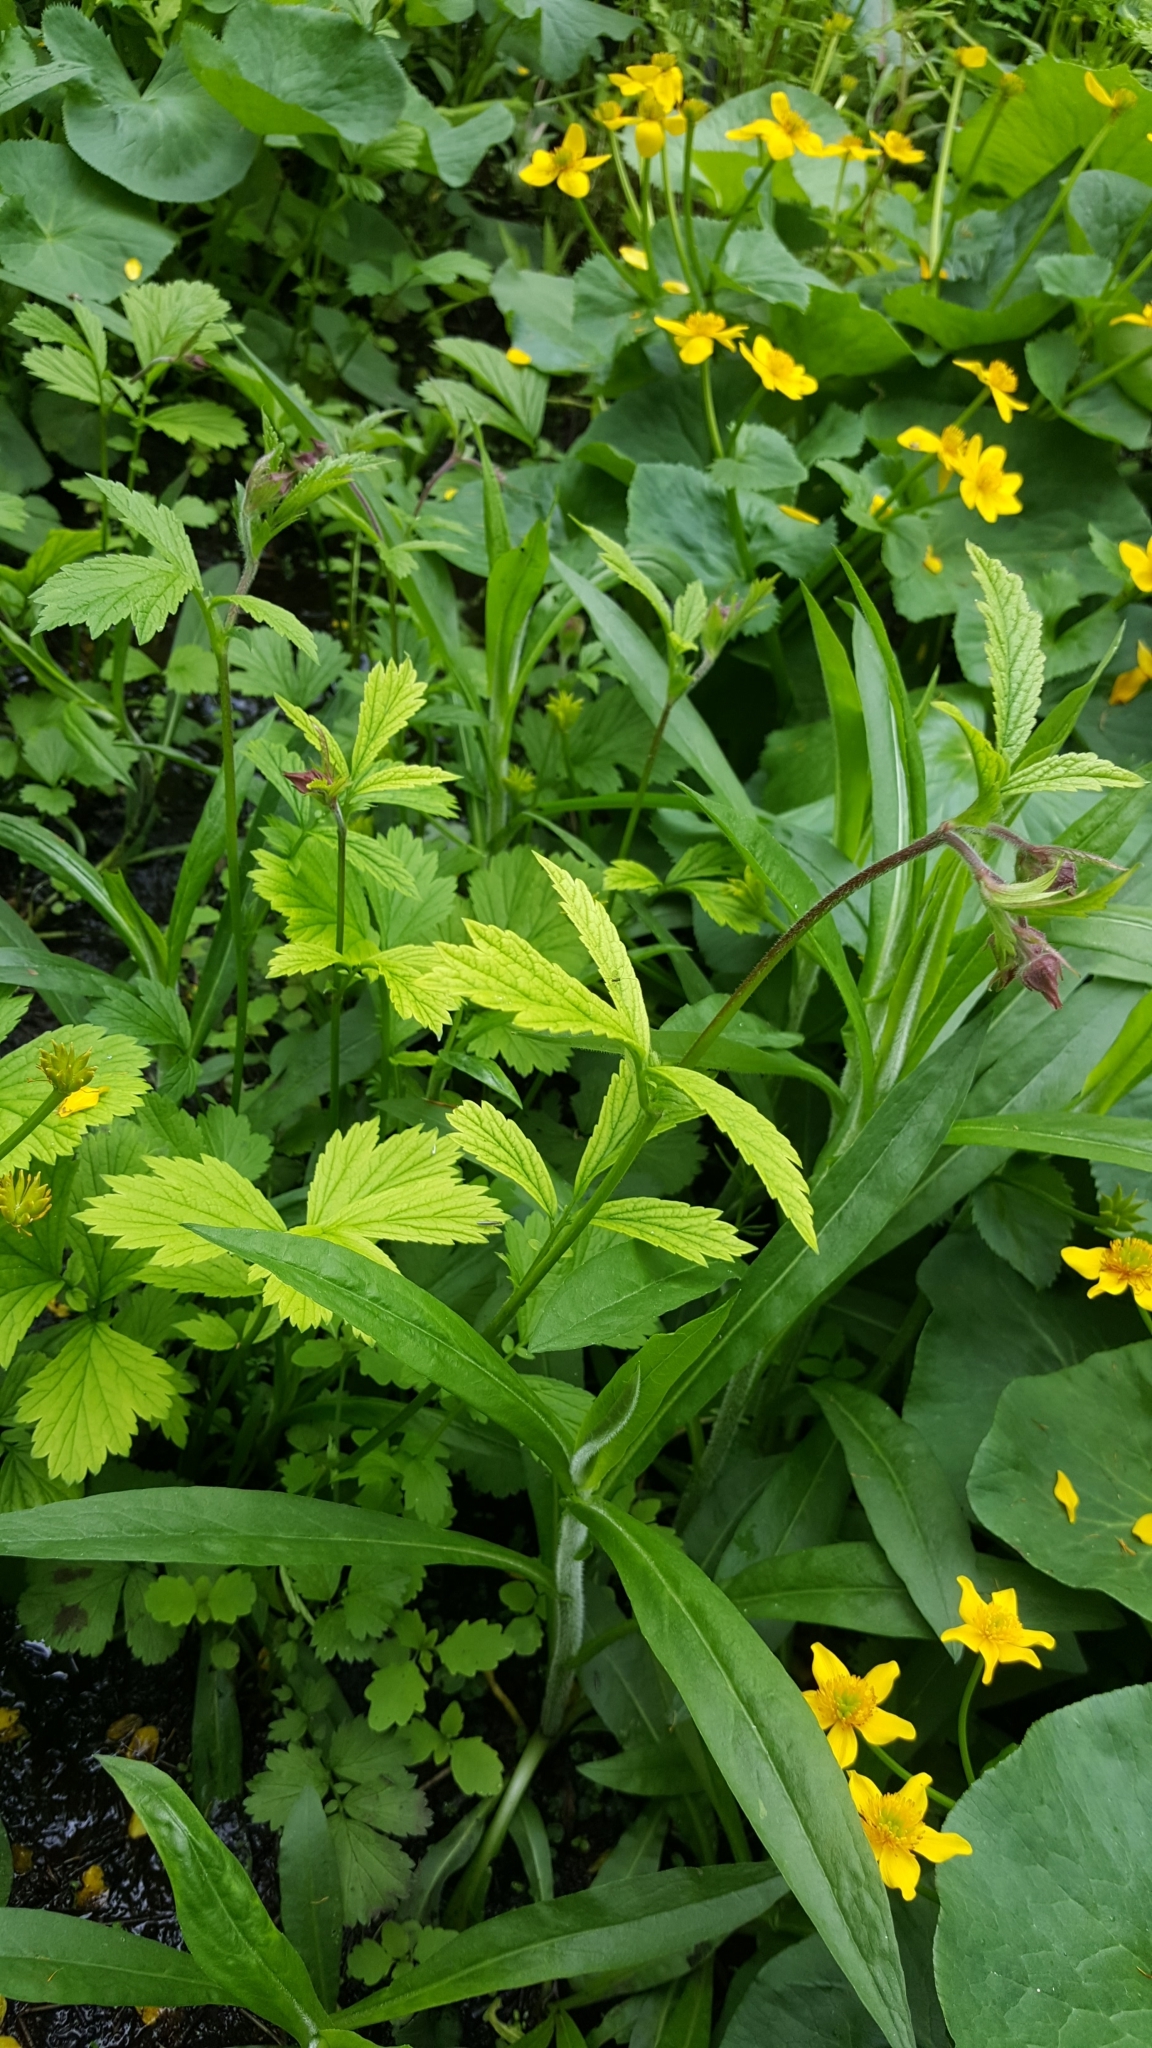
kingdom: Plantae
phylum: Tracheophyta
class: Magnoliopsida
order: Rosales
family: Rosaceae
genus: Geum
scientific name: Geum rivale
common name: Water avens
